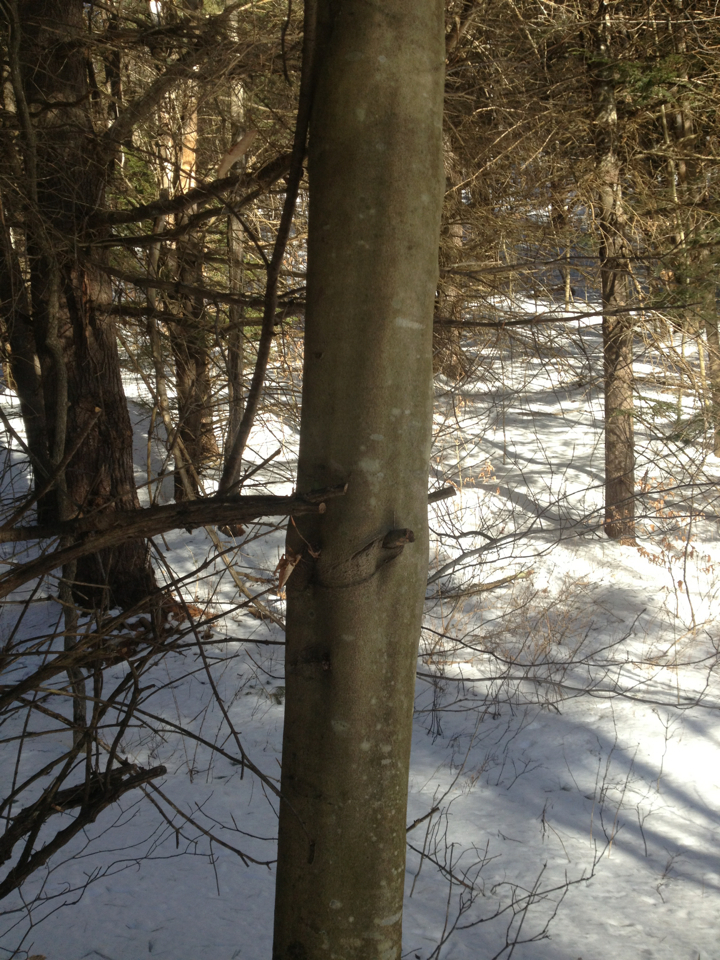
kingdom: Plantae
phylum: Tracheophyta
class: Magnoliopsida
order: Fagales
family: Fagaceae
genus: Fagus
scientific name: Fagus grandifolia
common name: American beech
